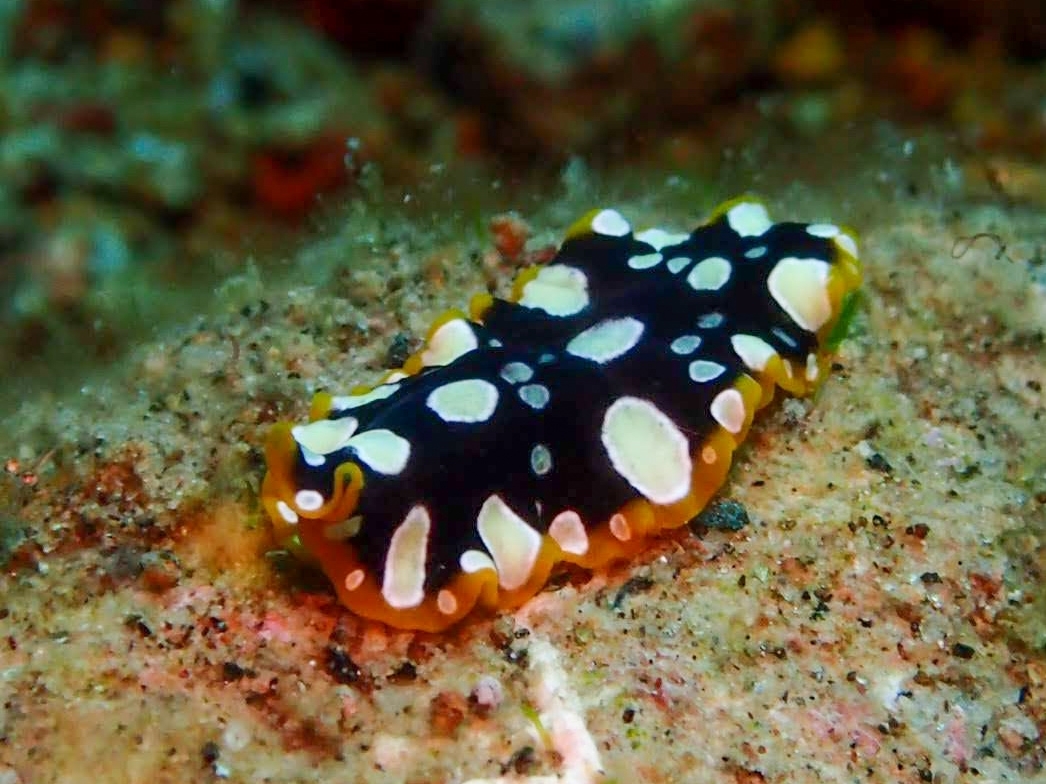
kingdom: Animalia
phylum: Platyhelminthes
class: Turbellaria
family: Pseudocerotidae
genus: Pseudoceros
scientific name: Pseudoceros scintillatus
